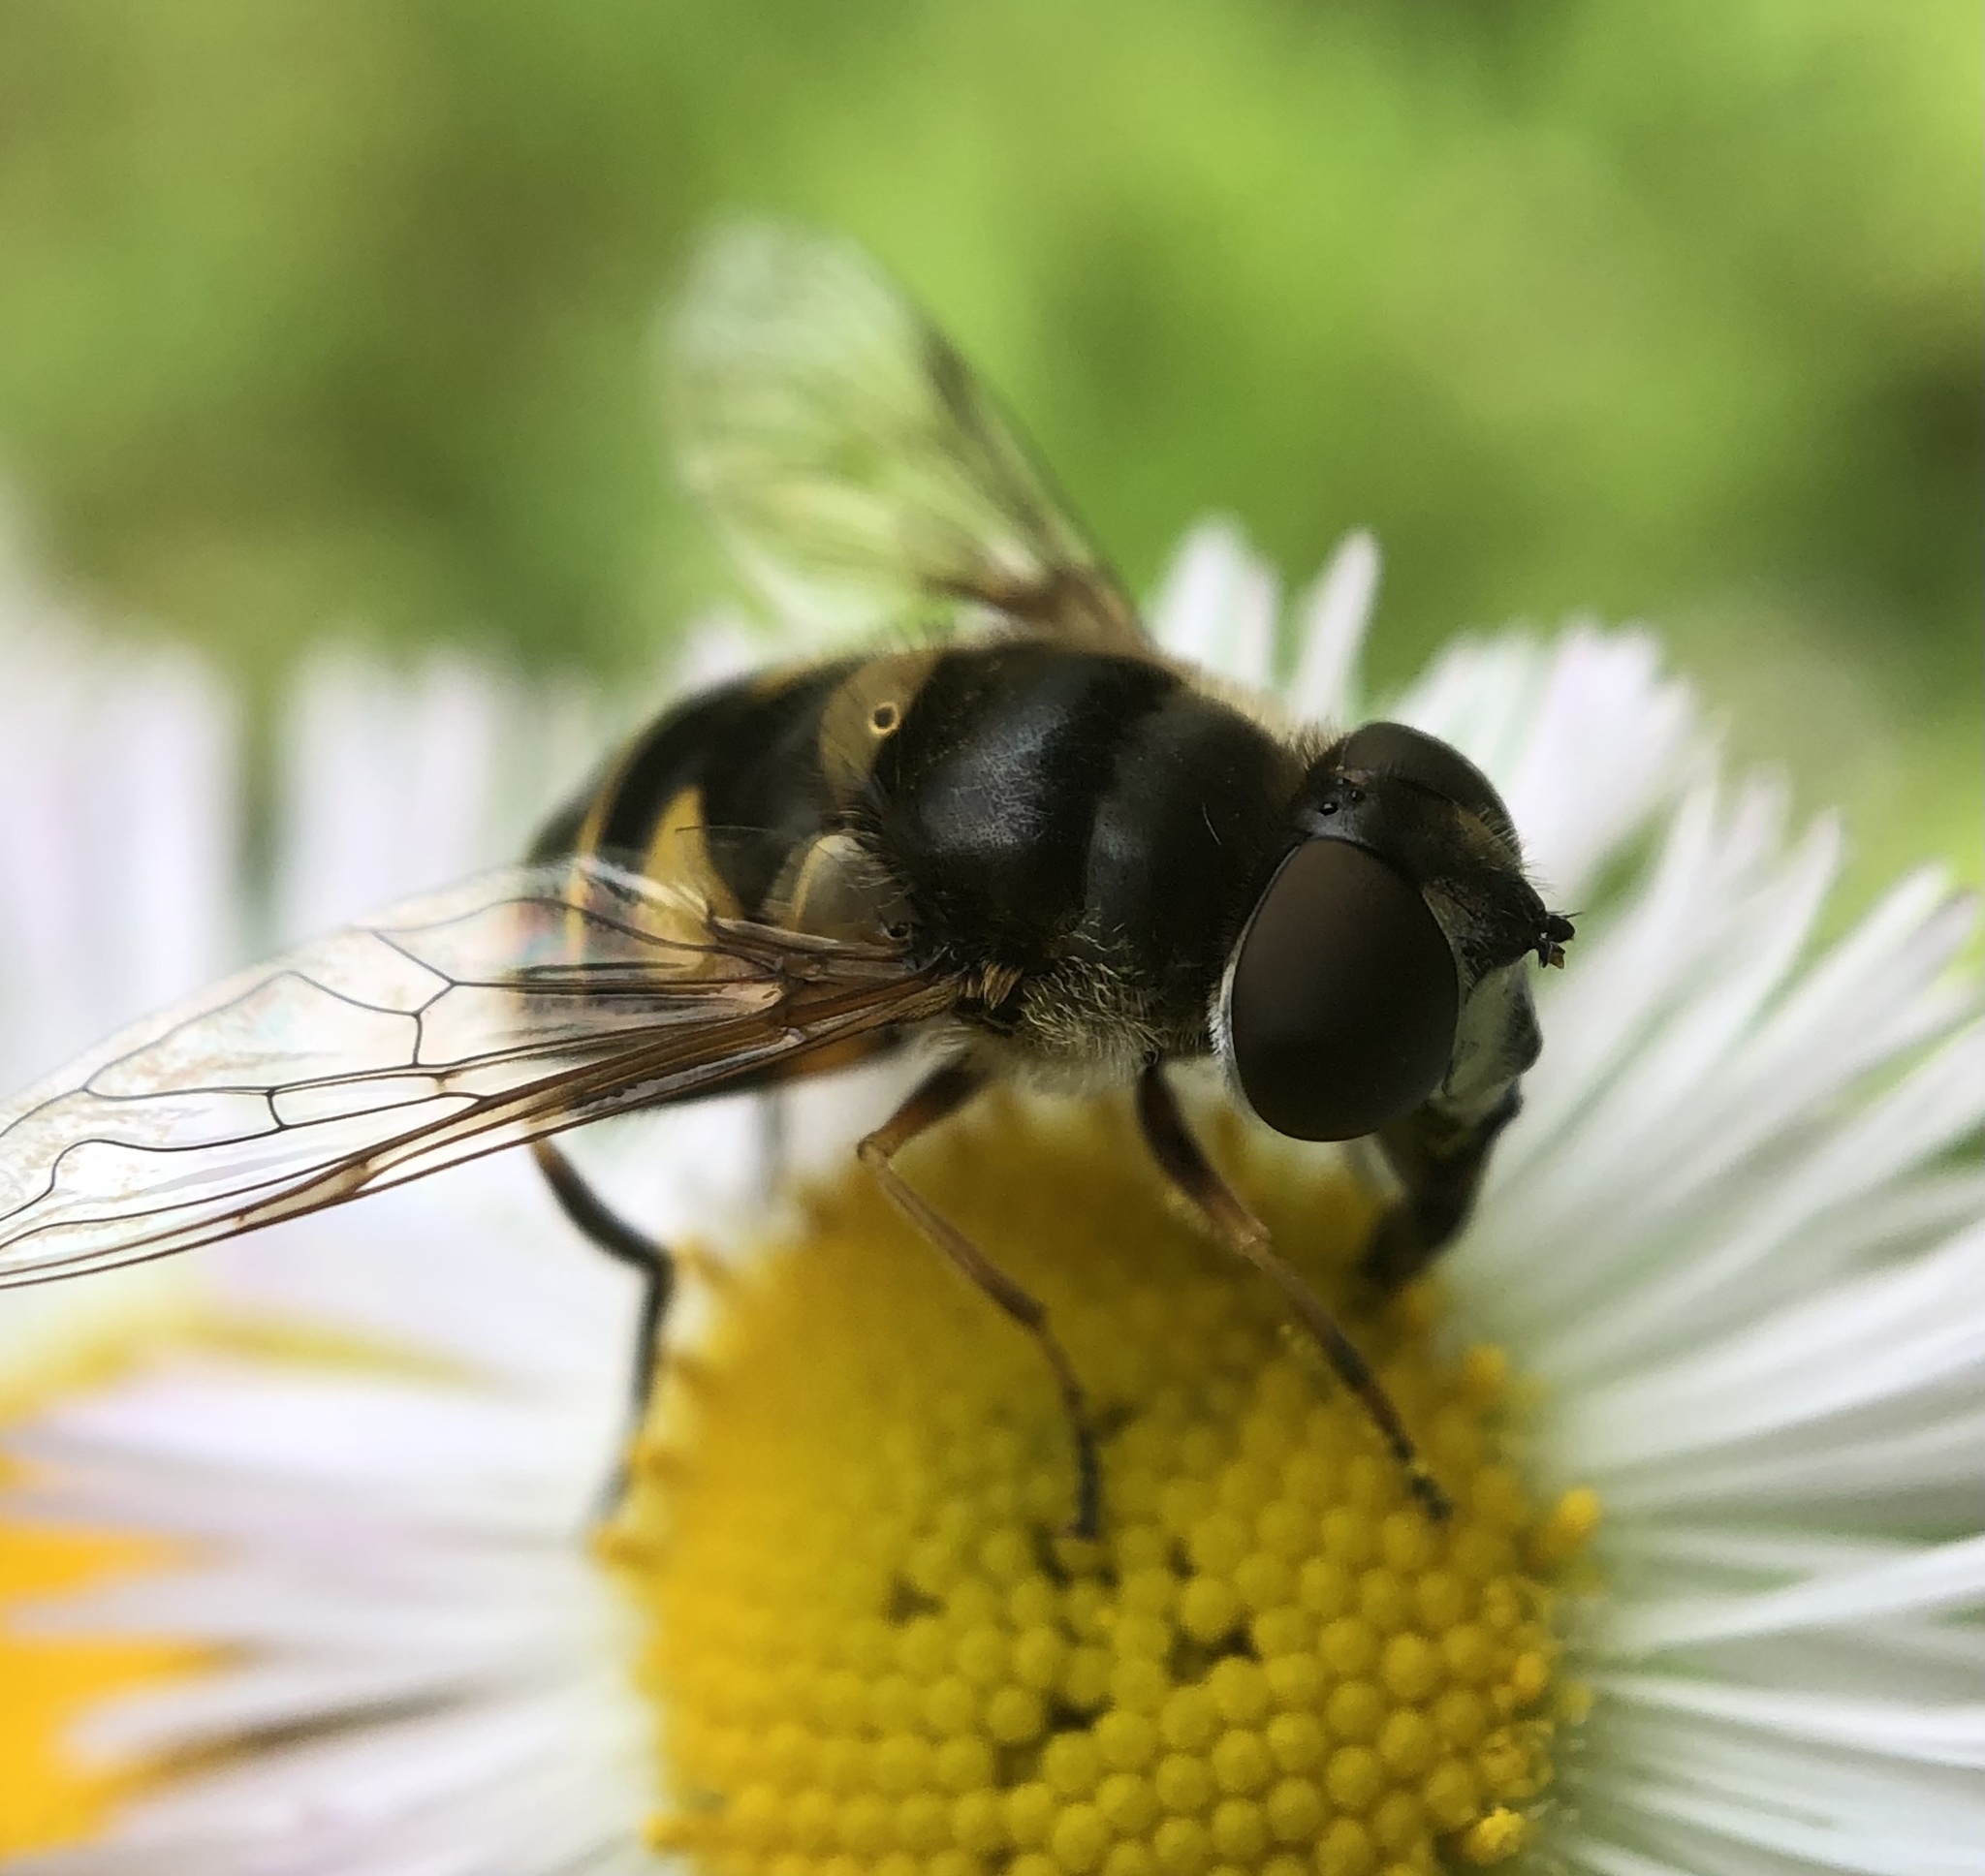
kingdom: Animalia
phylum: Arthropoda
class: Insecta
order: Diptera
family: Syrphidae
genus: Eristalis
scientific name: Eristalis transversa
